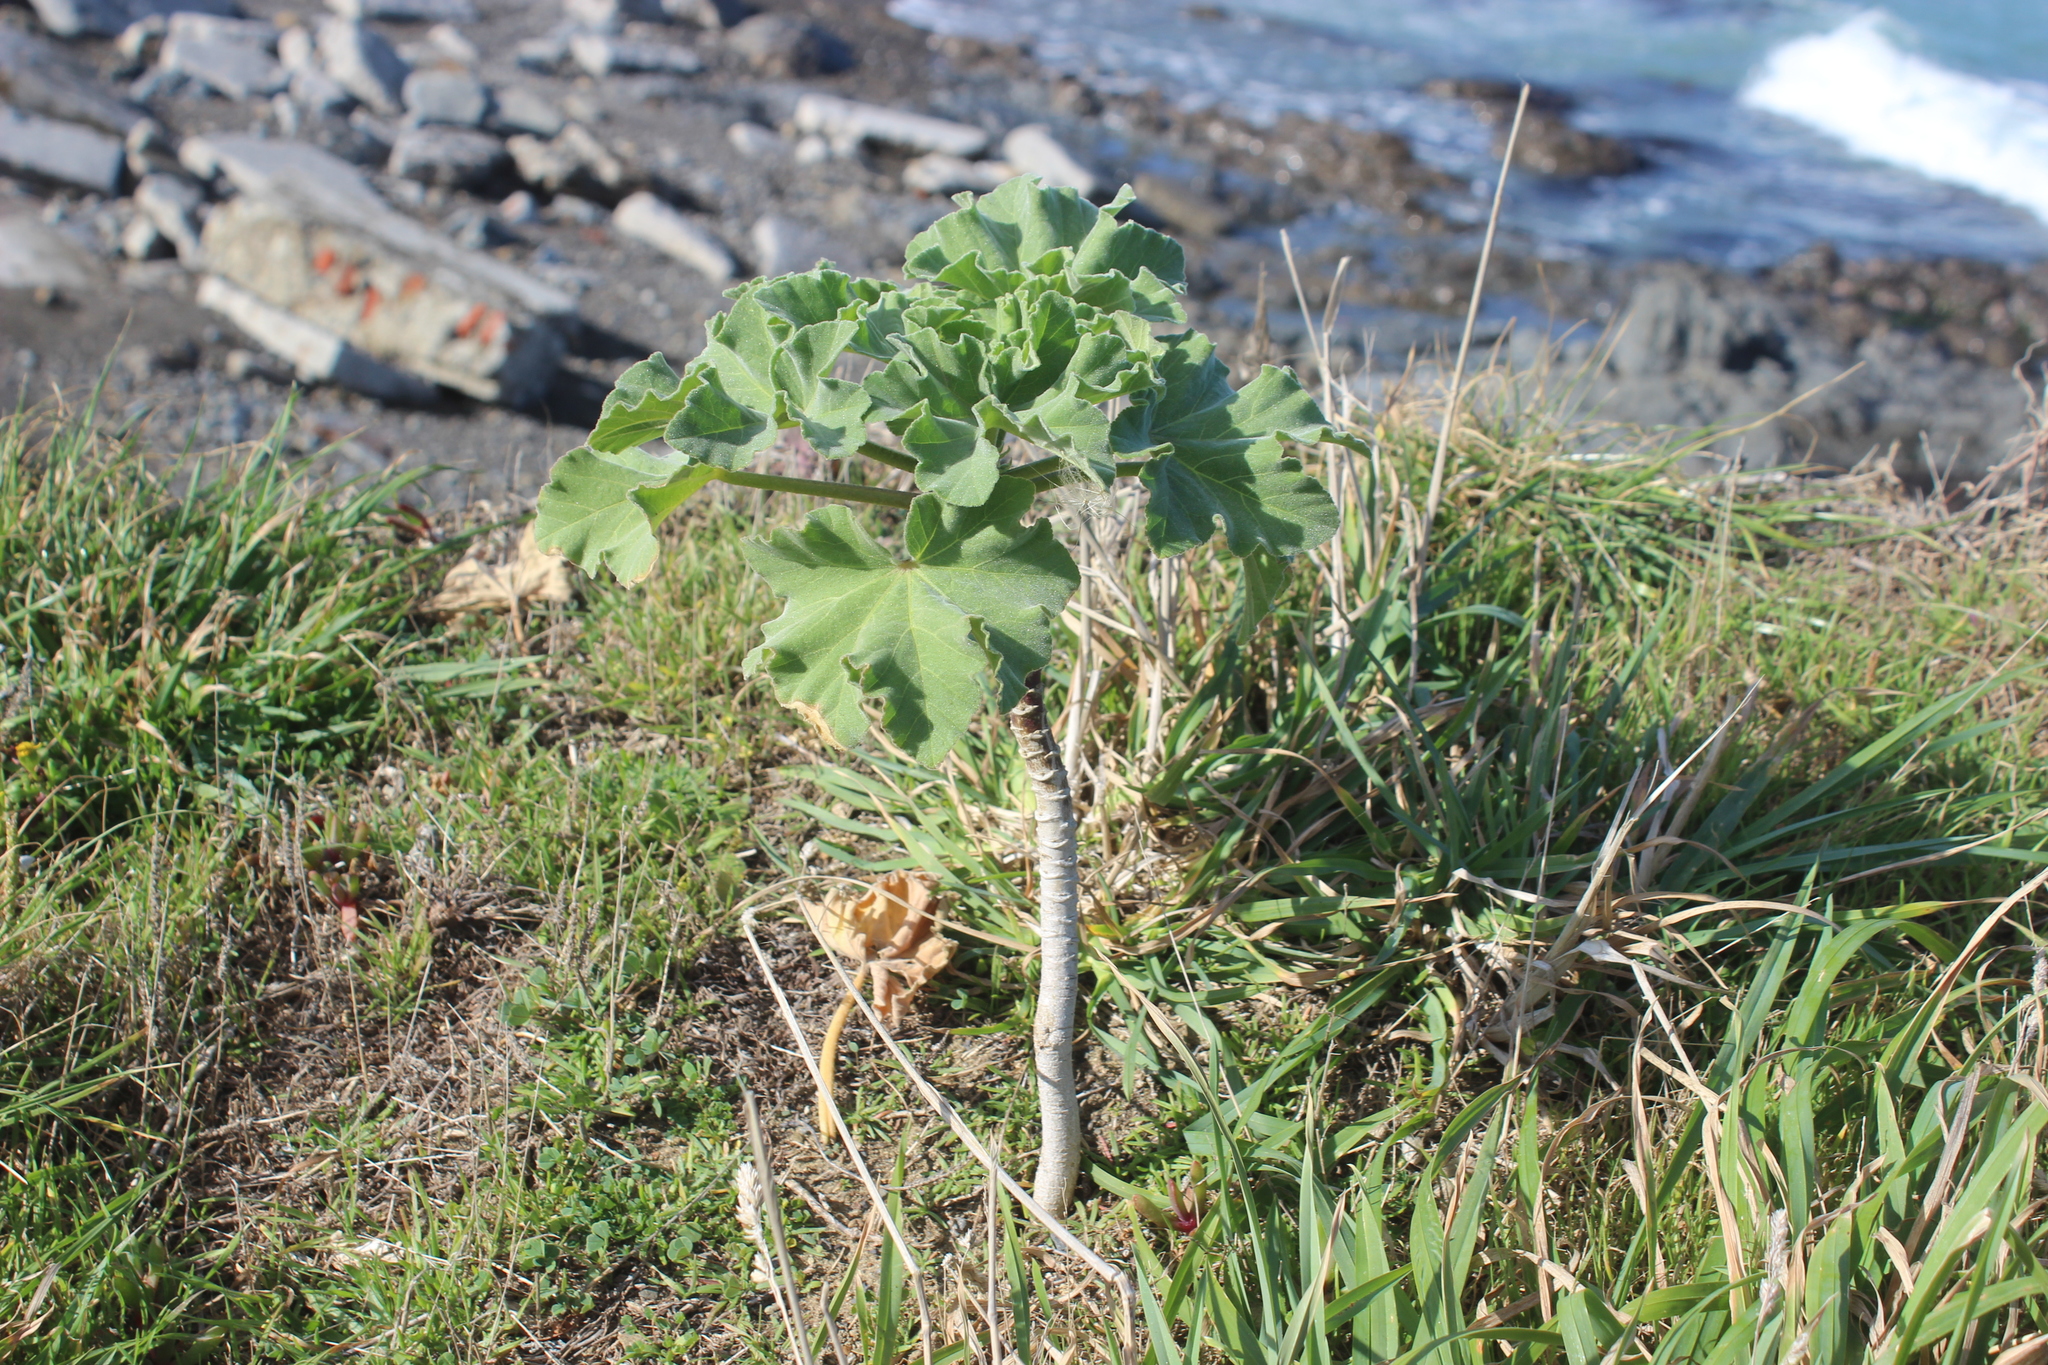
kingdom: Plantae
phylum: Tracheophyta
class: Magnoliopsida
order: Malvales
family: Malvaceae
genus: Malva
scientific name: Malva arborea
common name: Tree mallow
